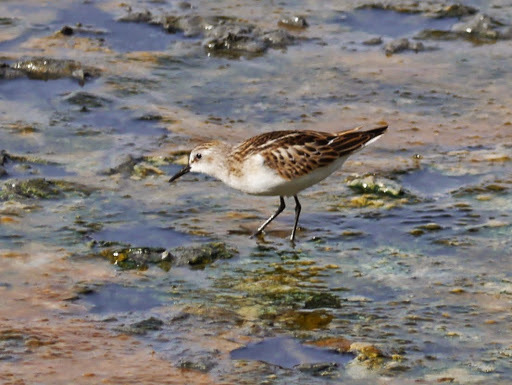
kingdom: Animalia
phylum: Chordata
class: Aves
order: Charadriiformes
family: Scolopacidae
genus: Calidris
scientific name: Calidris minuta
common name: Little stint
